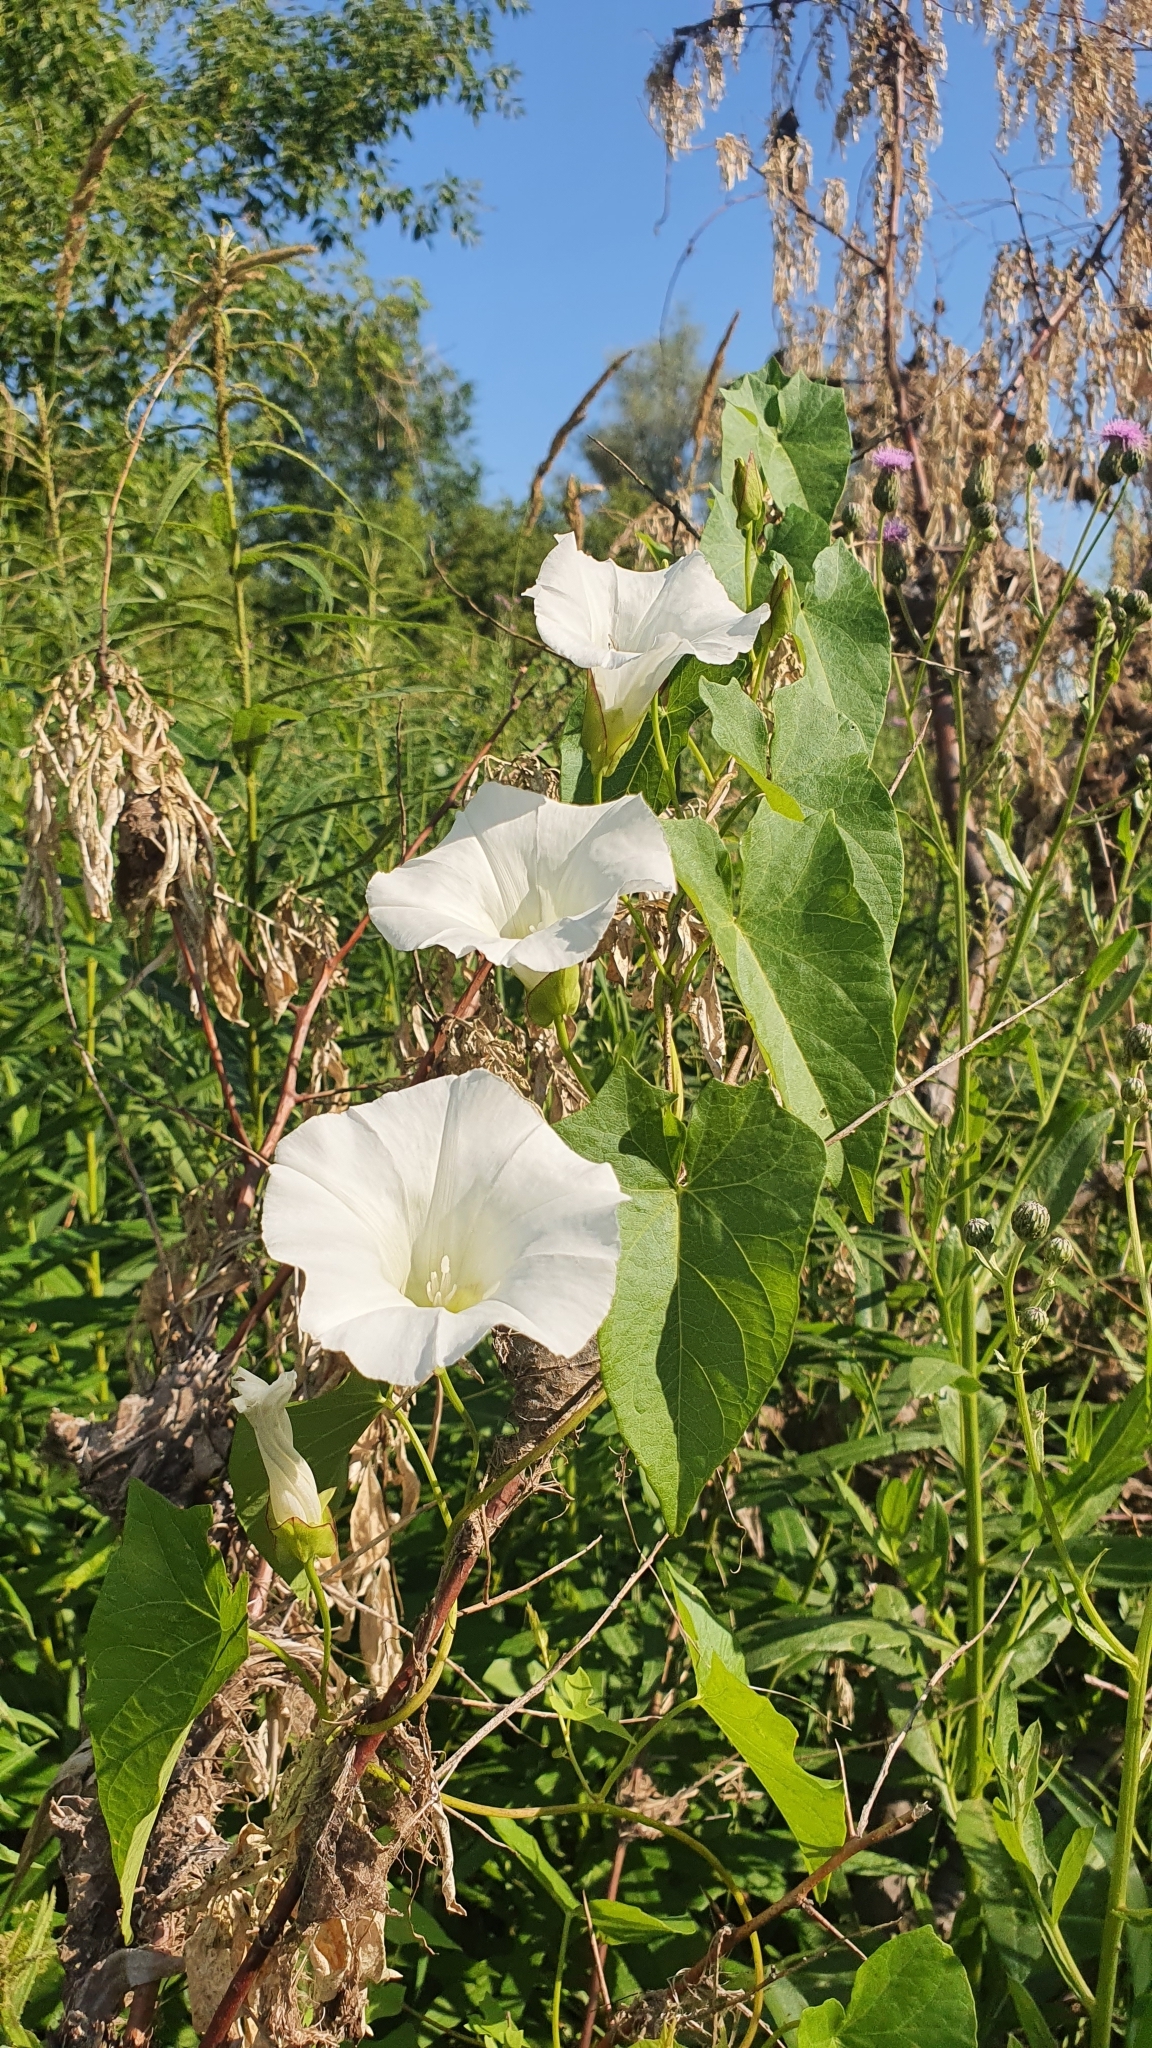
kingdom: Plantae
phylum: Tracheophyta
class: Magnoliopsida
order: Solanales
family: Convolvulaceae
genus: Calystegia
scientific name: Calystegia sepium
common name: Hedge bindweed
